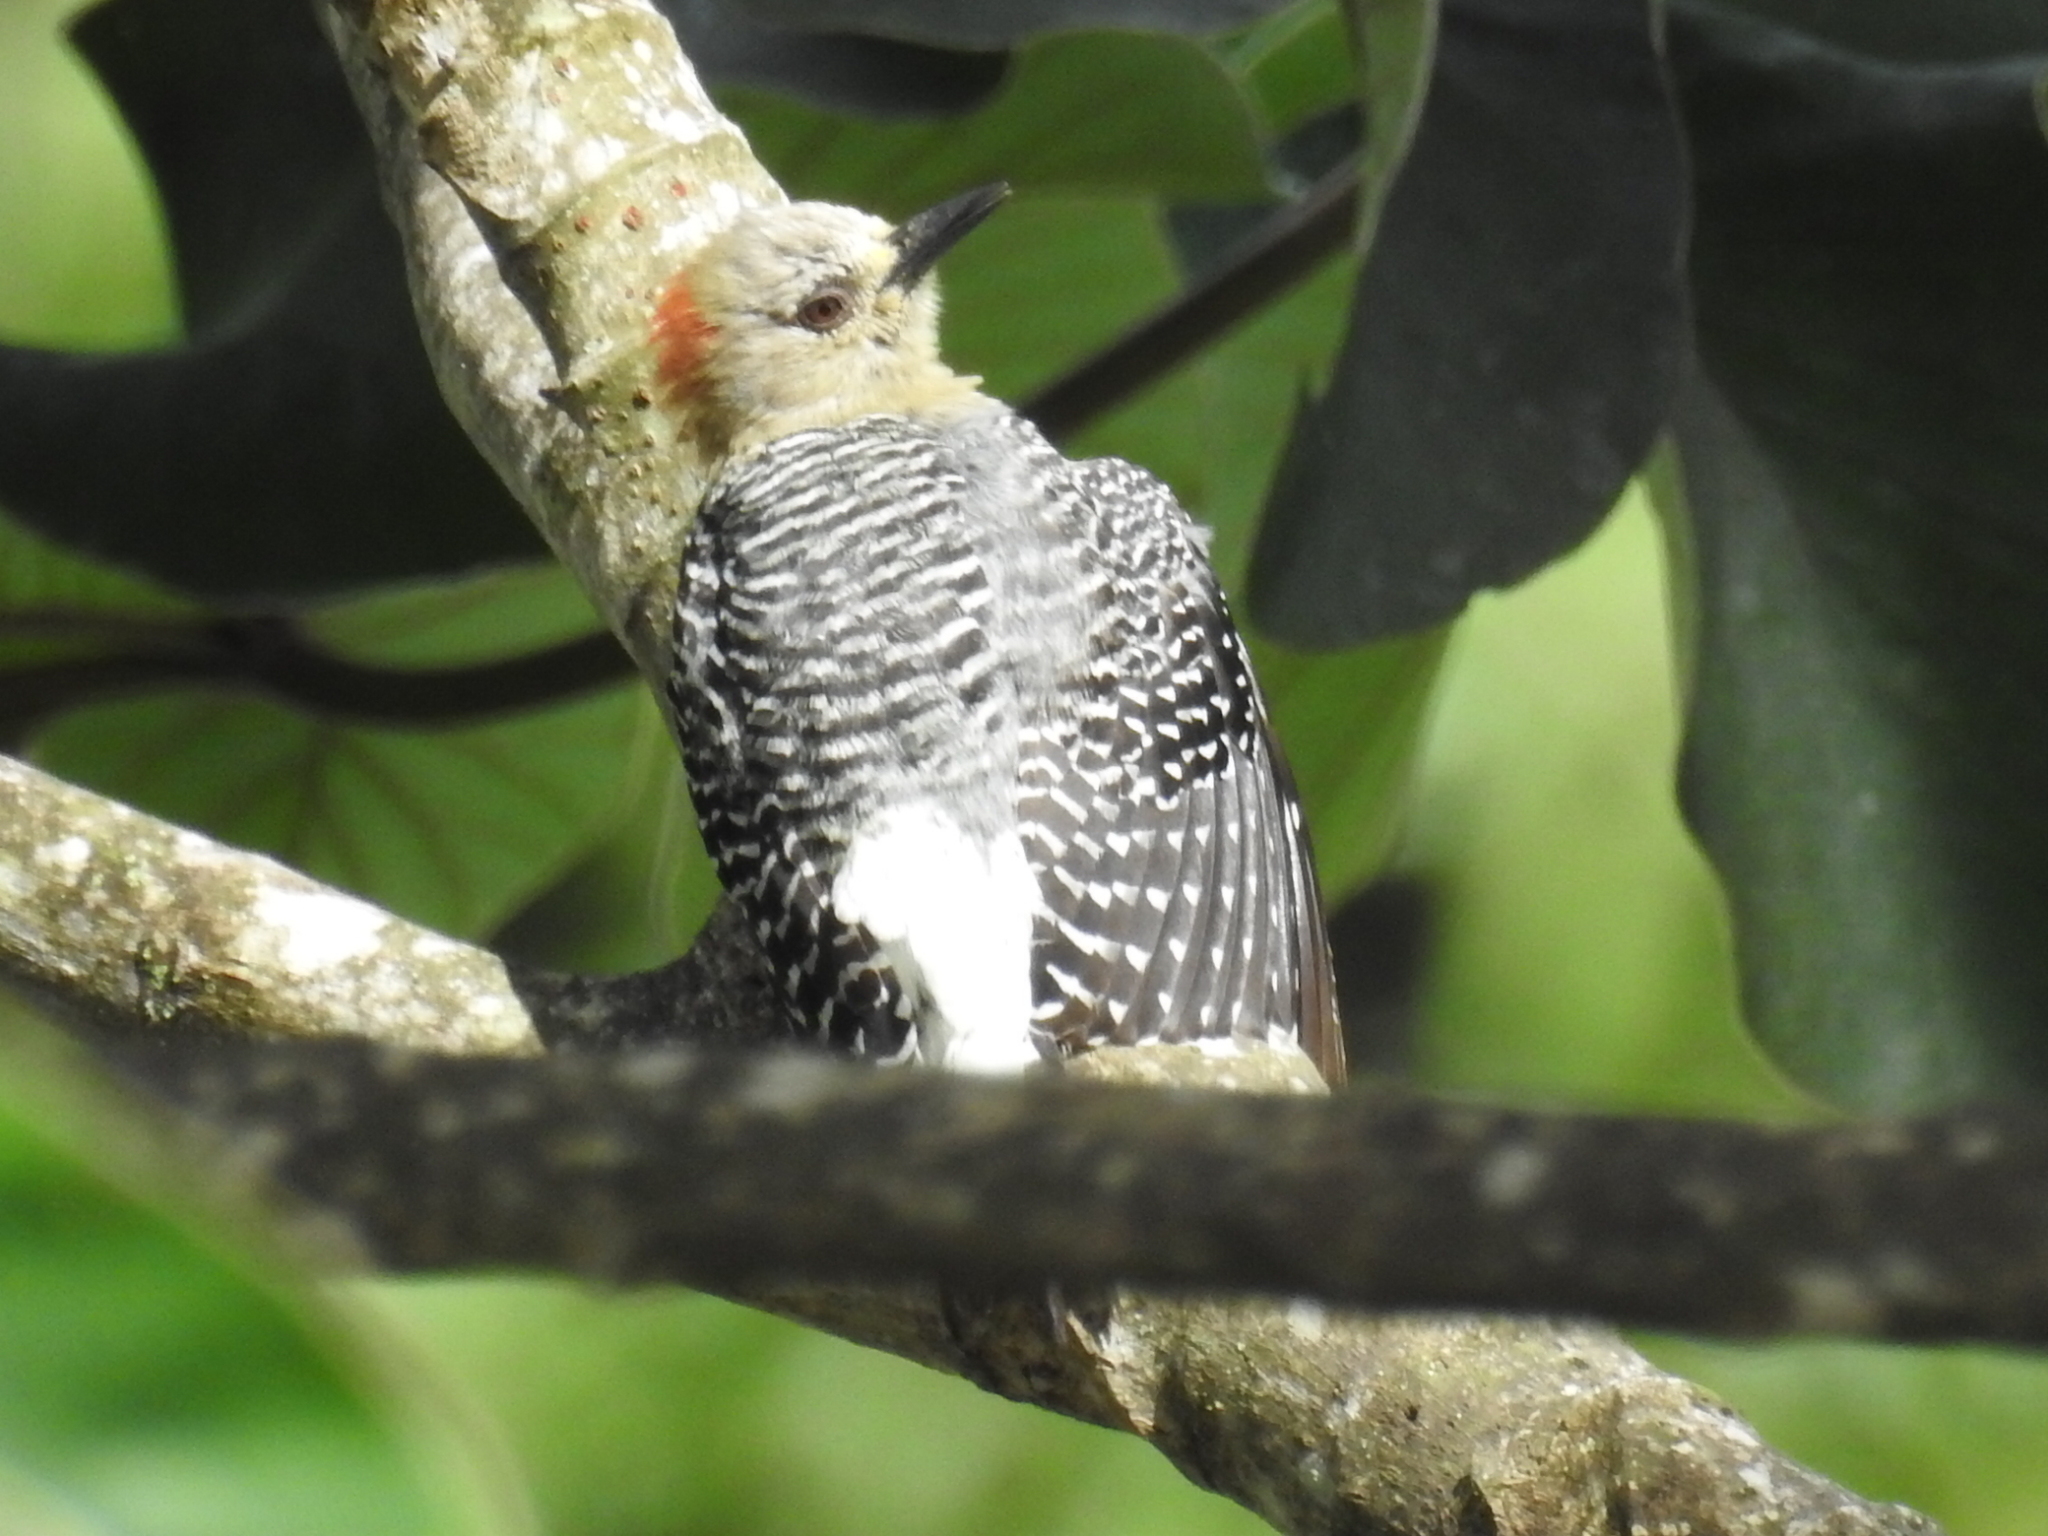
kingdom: Animalia
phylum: Chordata
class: Aves
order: Piciformes
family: Picidae
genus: Melanerpes
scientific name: Melanerpes rubricapillus
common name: Red-crowned woodpecker
